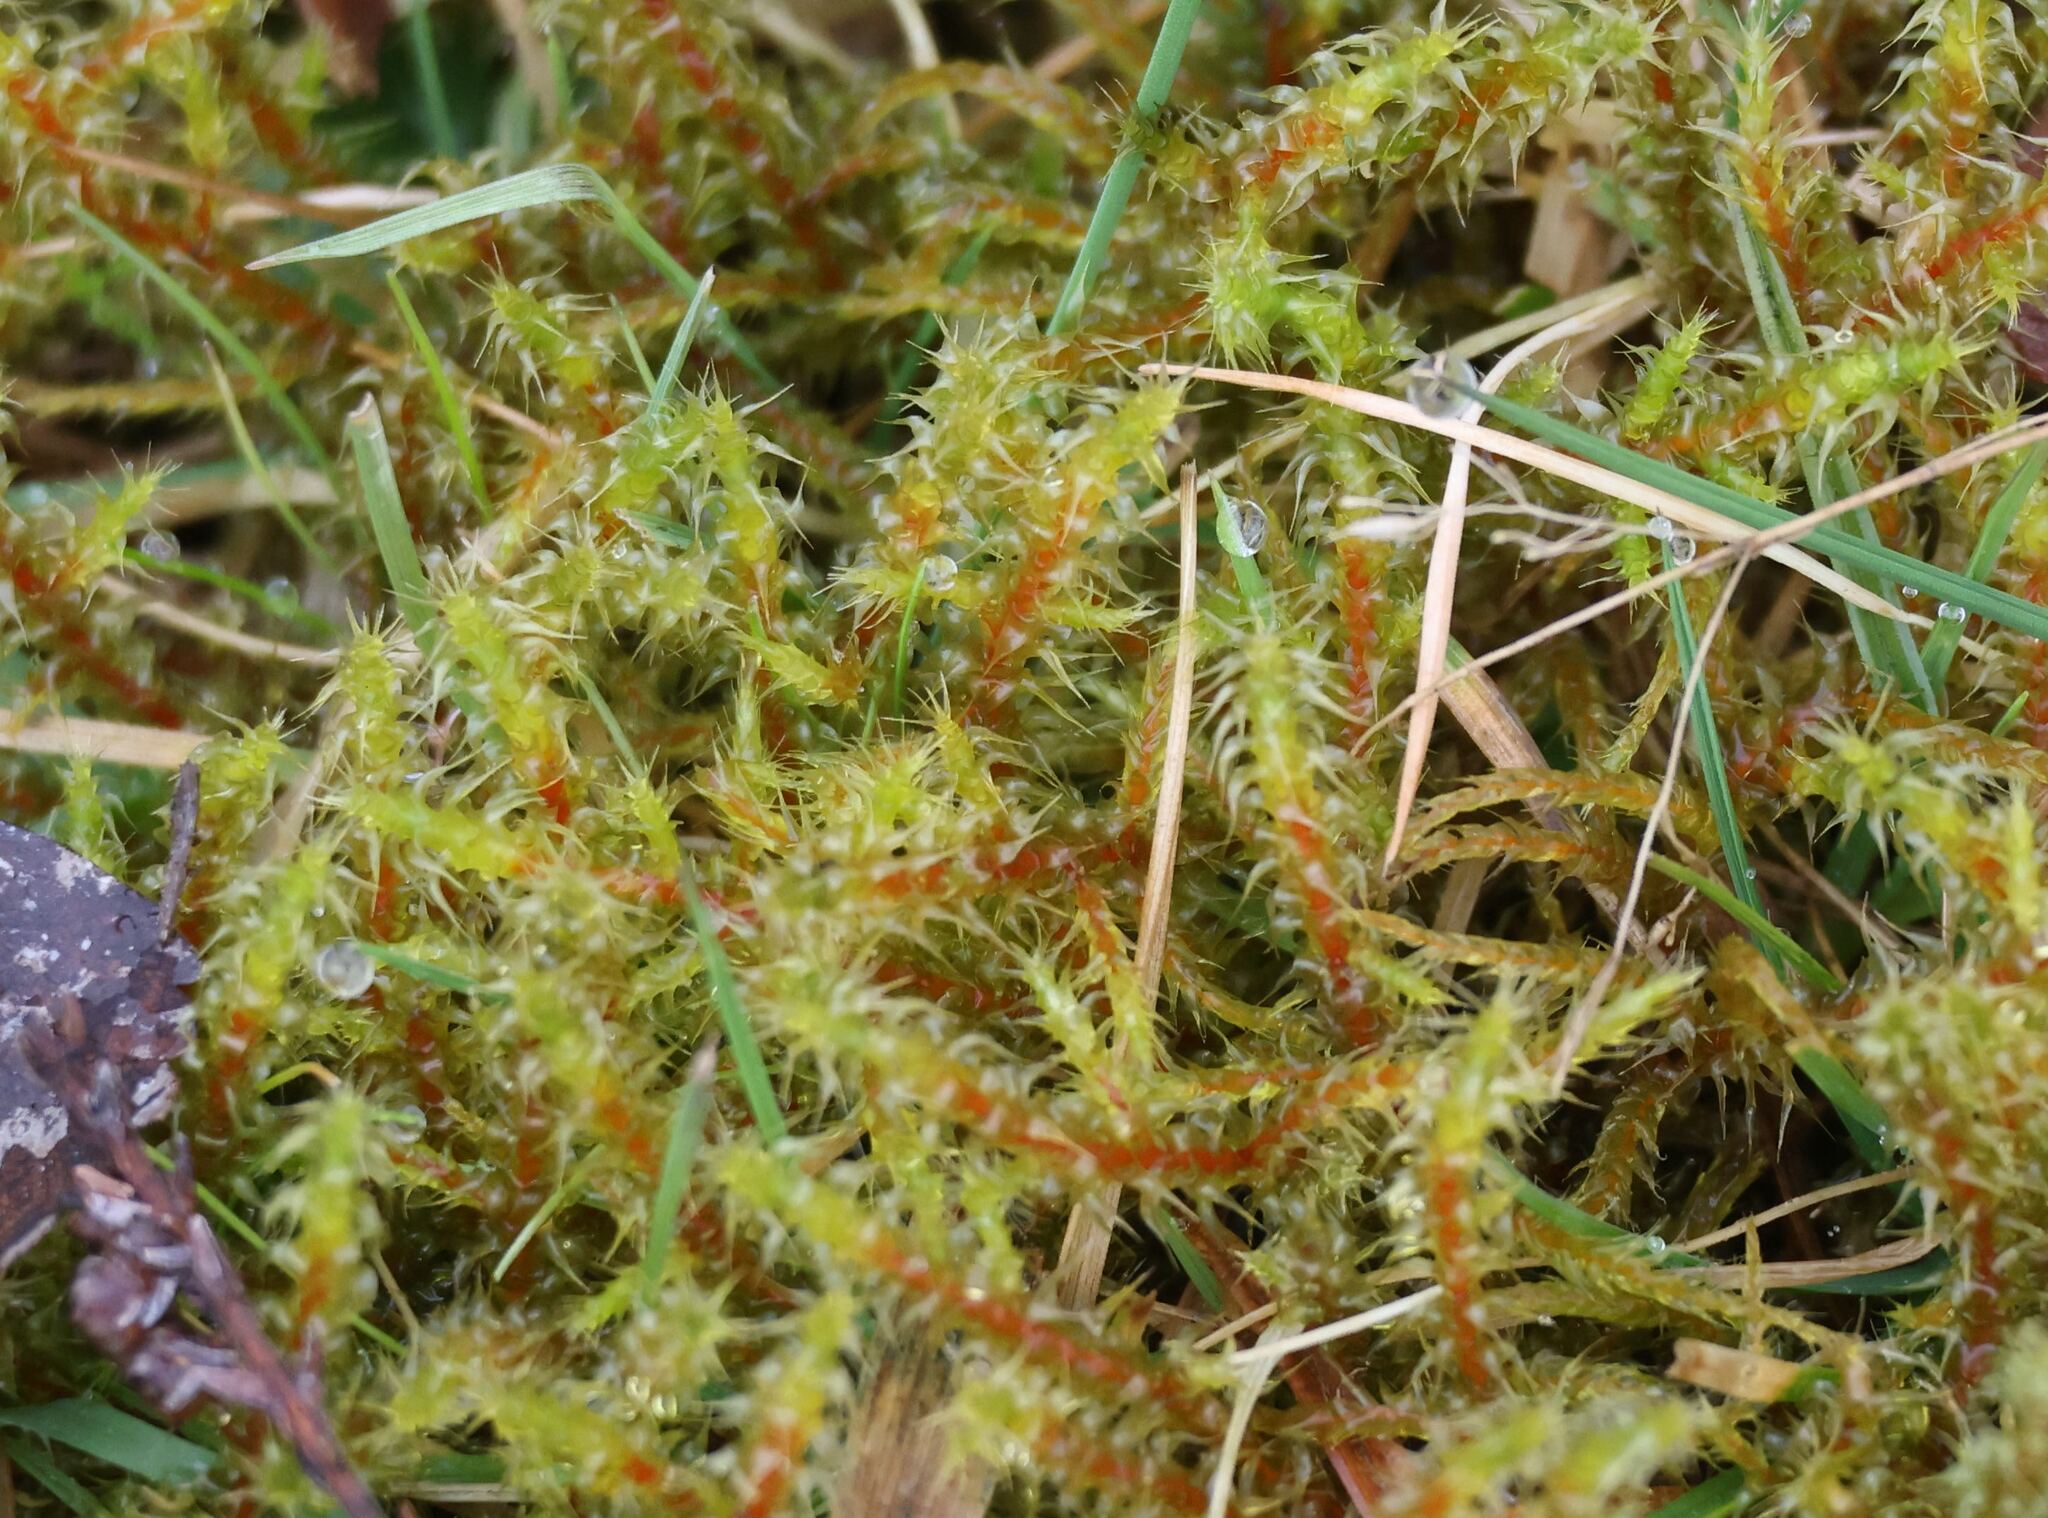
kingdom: Plantae
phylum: Bryophyta
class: Bryopsida
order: Hypnales
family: Hylocomiaceae
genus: Rhytidiadelphus
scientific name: Rhytidiadelphus squarrosus
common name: Springy turf-moss
